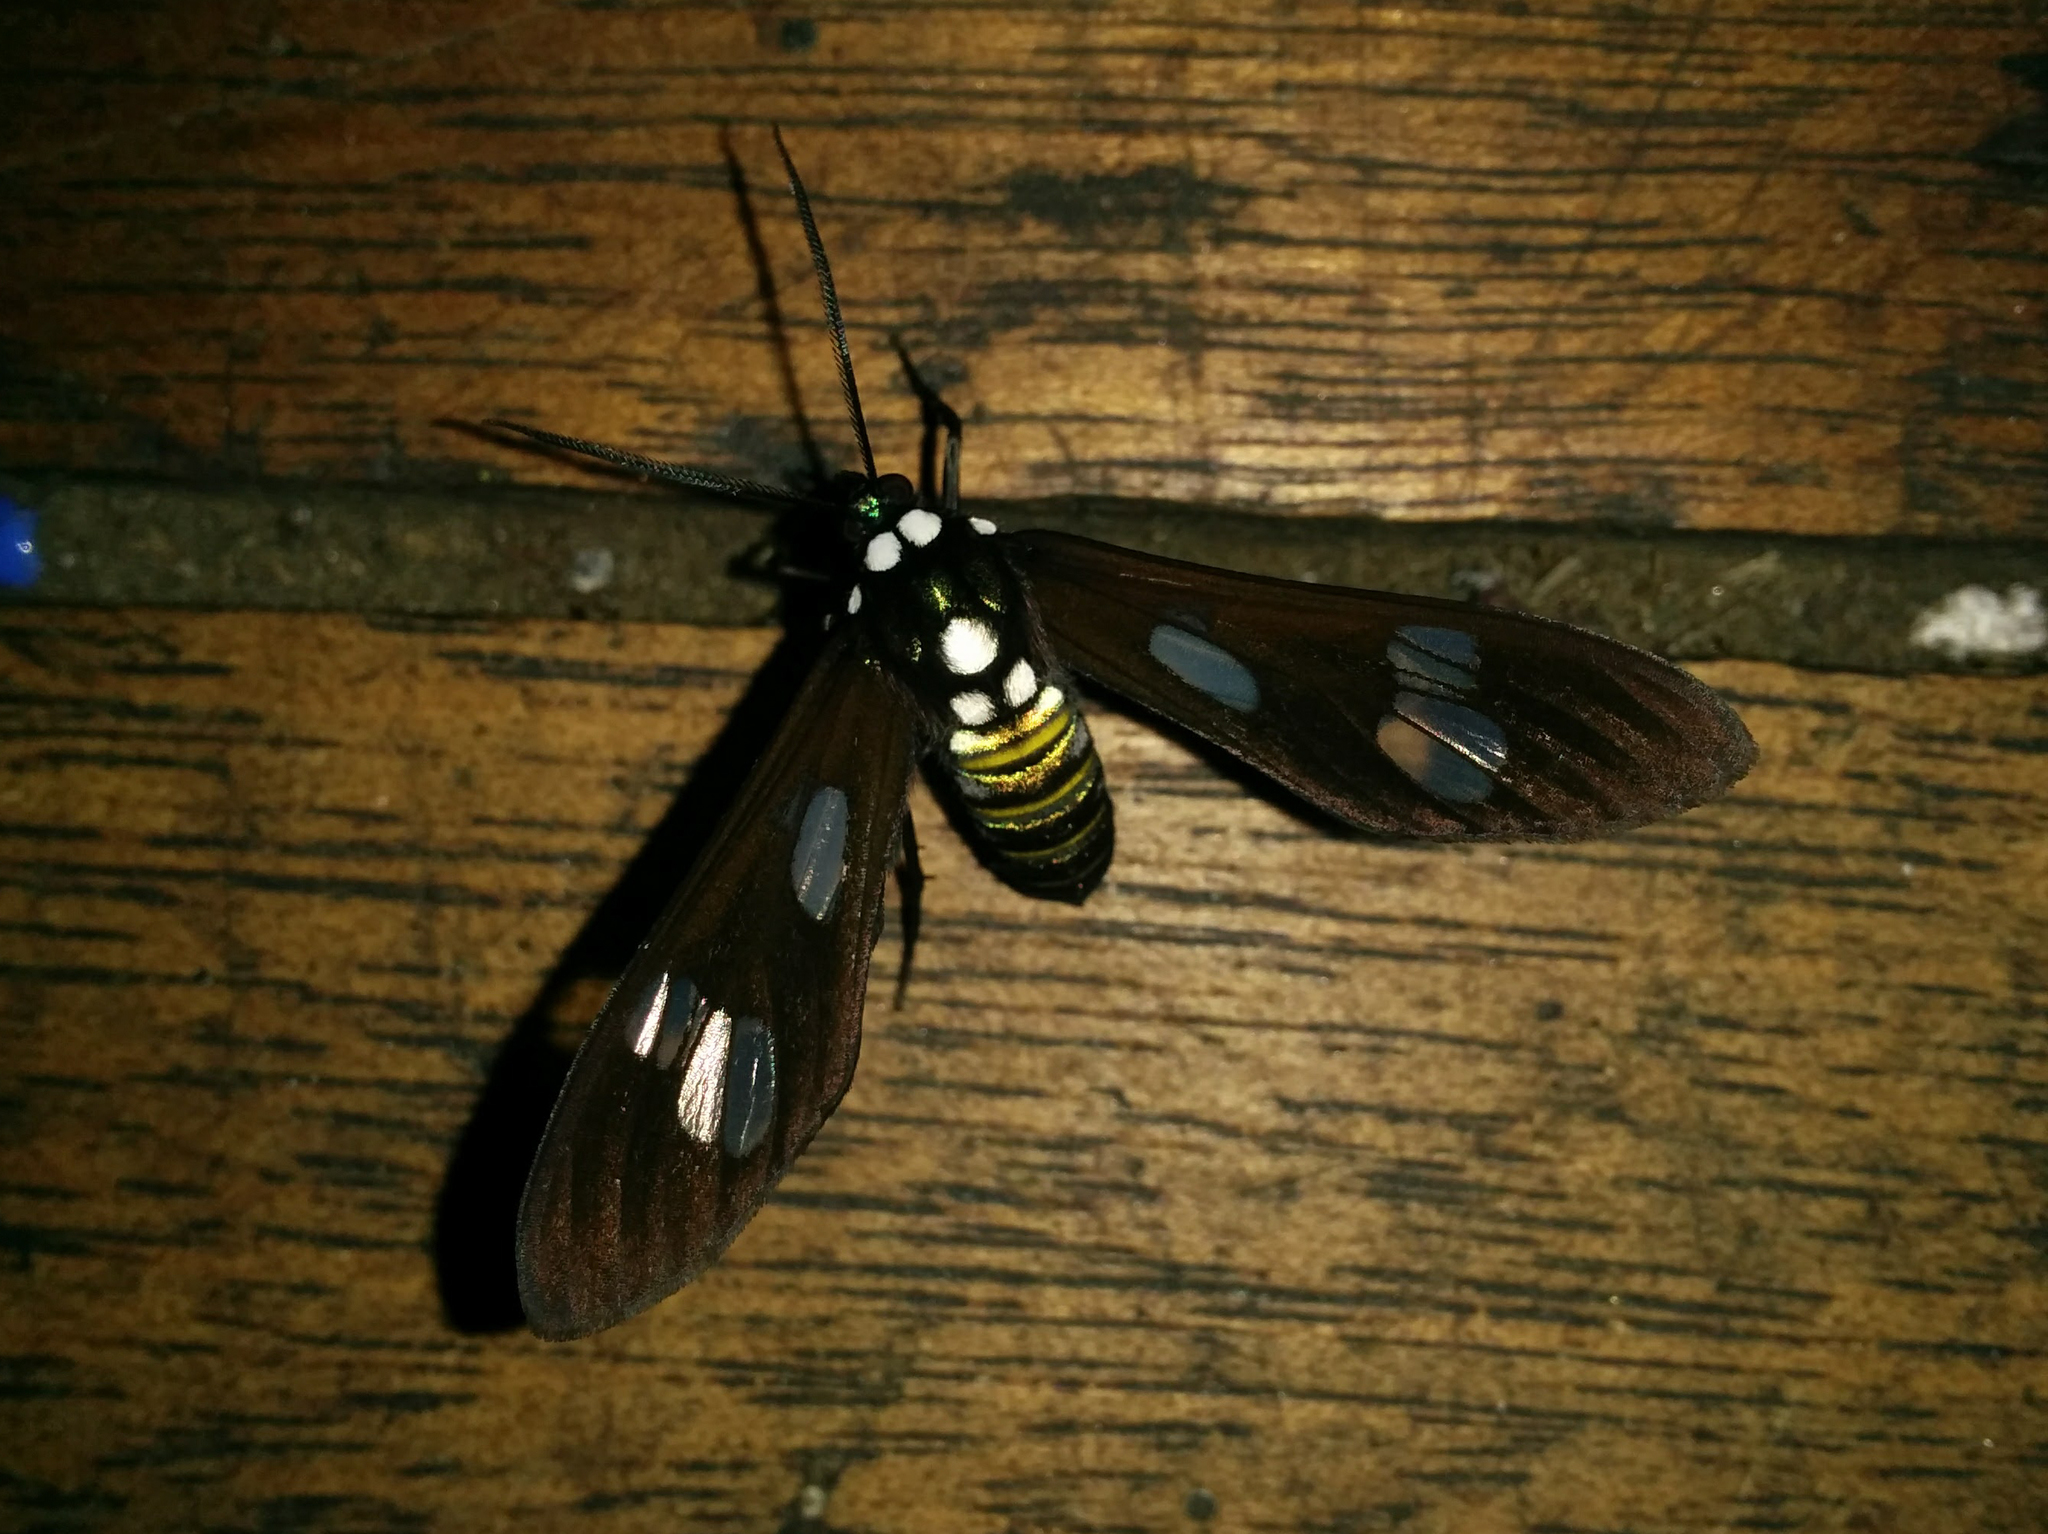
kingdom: Animalia
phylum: Arthropoda
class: Insecta
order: Lepidoptera
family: Erebidae
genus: Phaio
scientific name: Phaio acquiguttata
